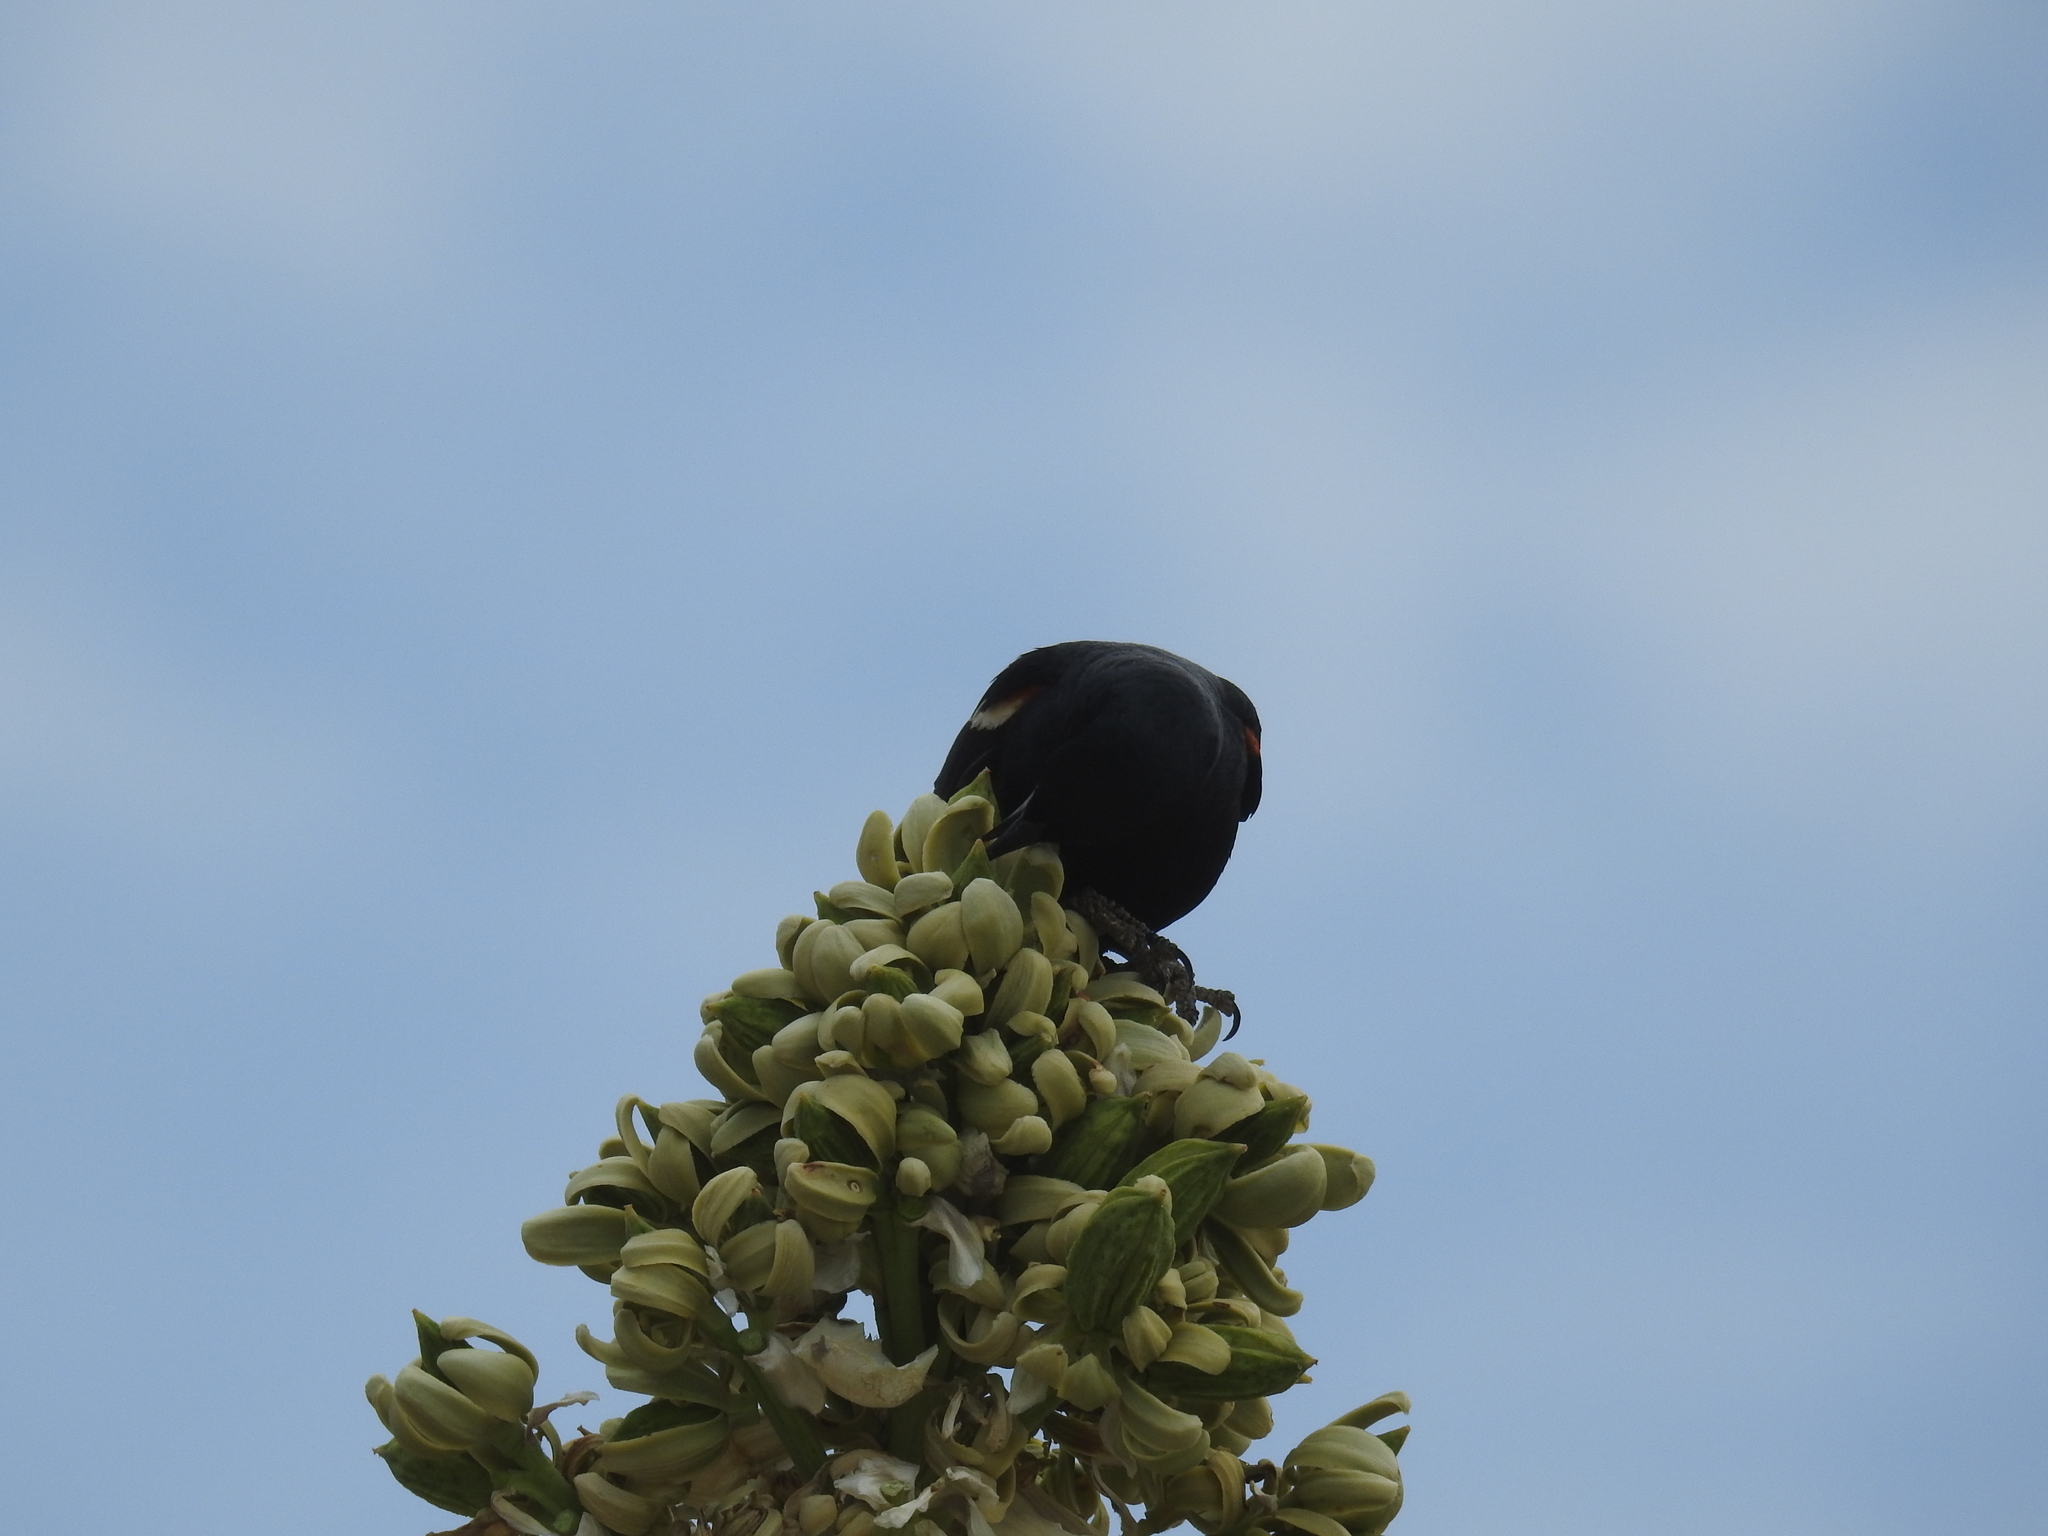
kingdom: Animalia
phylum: Chordata
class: Aves
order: Passeriformes
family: Icteridae
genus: Agelaius
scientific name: Agelaius tricolor
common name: Tricolored blackbird
